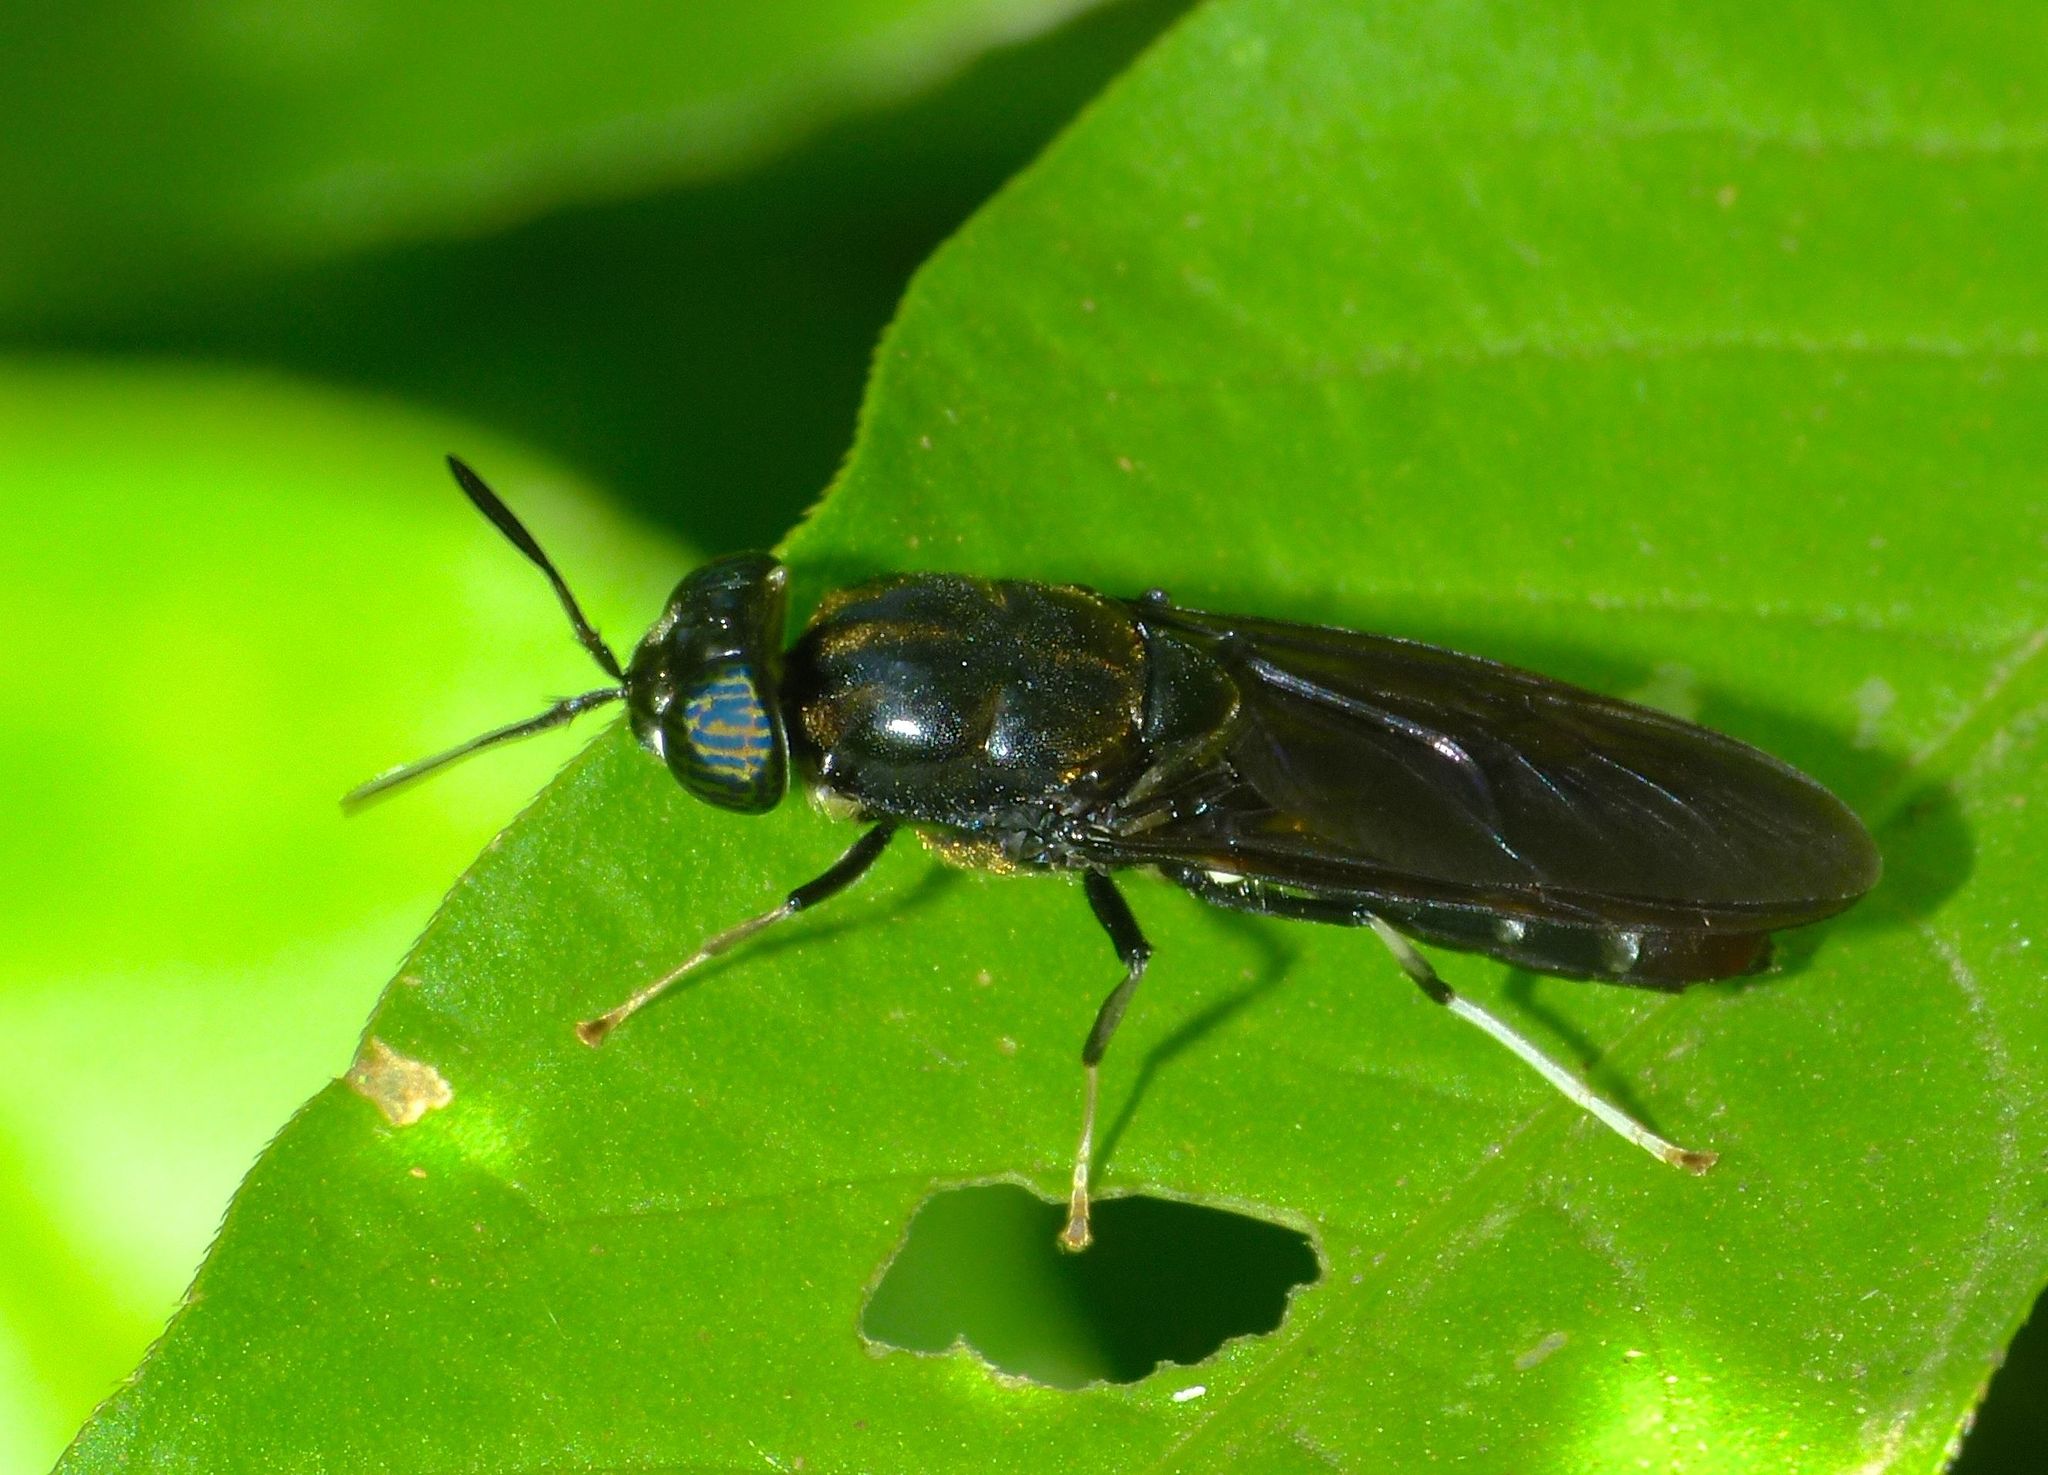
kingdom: Animalia
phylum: Arthropoda
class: Insecta
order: Diptera
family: Stratiomyidae
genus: Hermetia
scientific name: Hermetia illucens
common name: Black soldier fly
